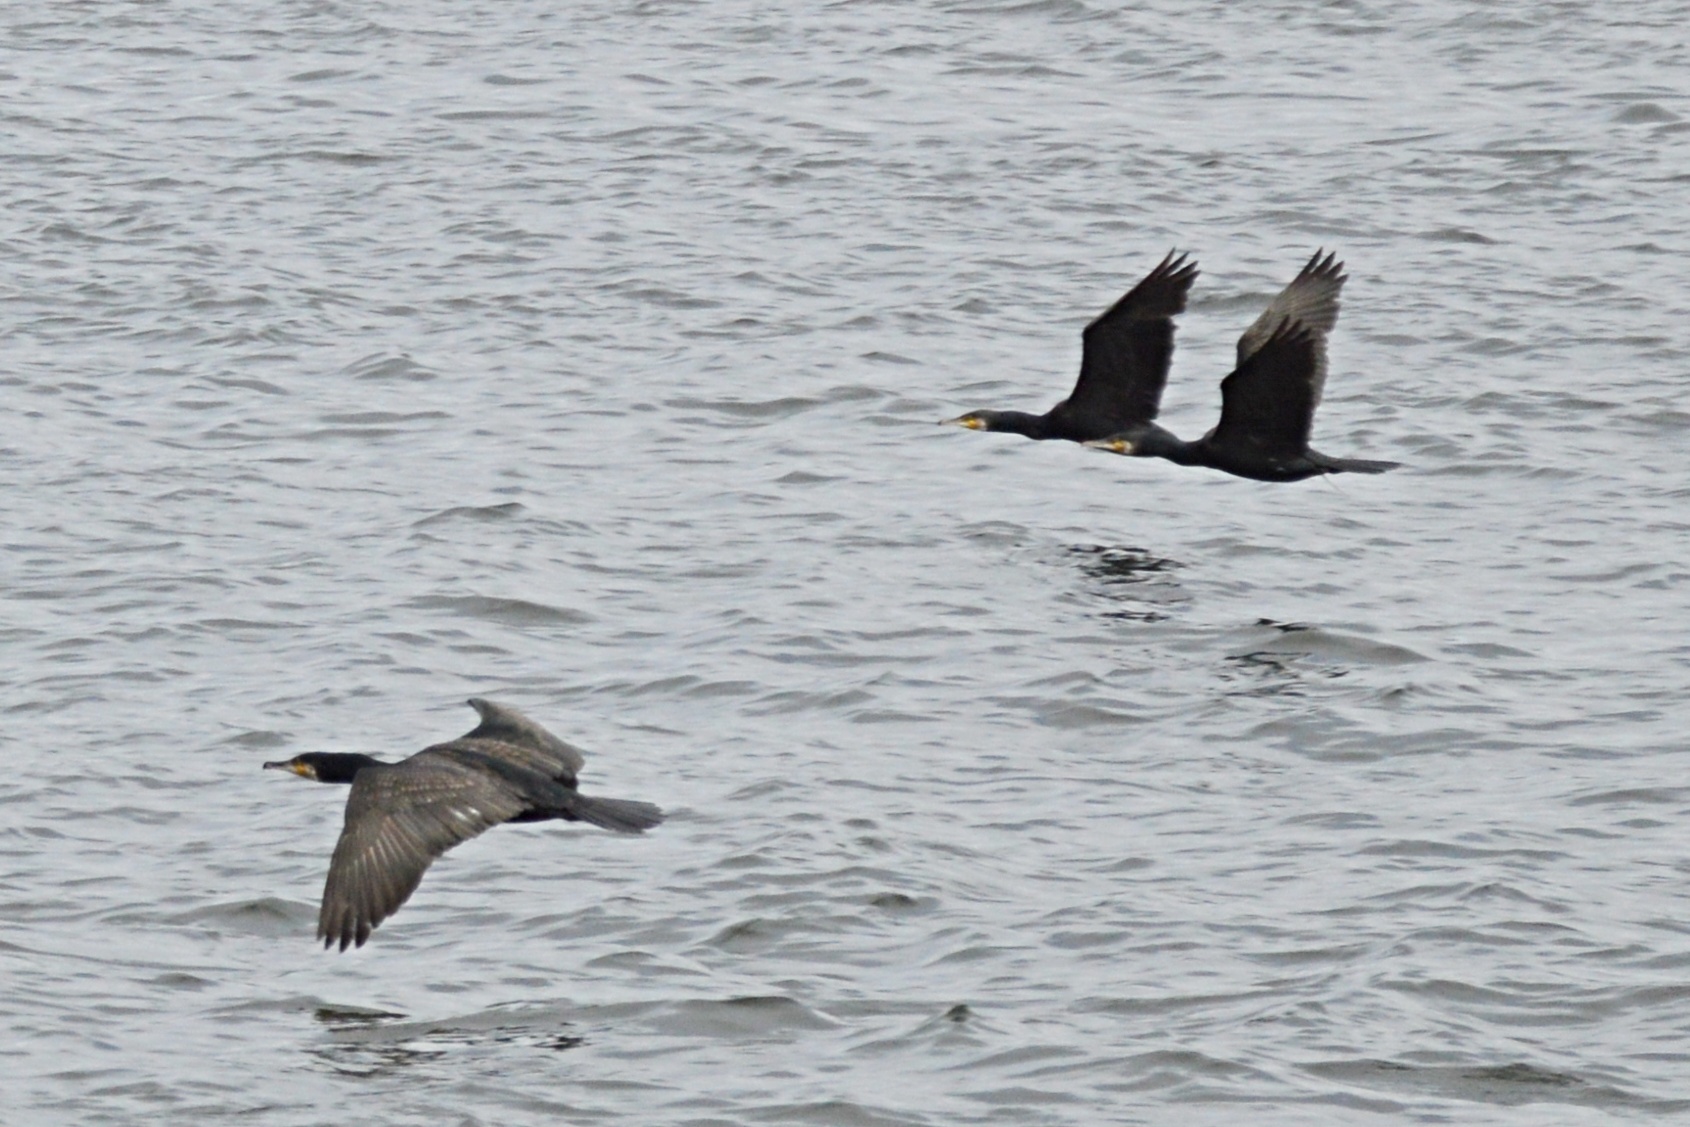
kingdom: Animalia
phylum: Chordata
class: Aves
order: Suliformes
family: Phalacrocoracidae
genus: Phalacrocorax
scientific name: Phalacrocorax carbo
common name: Great cormorant
